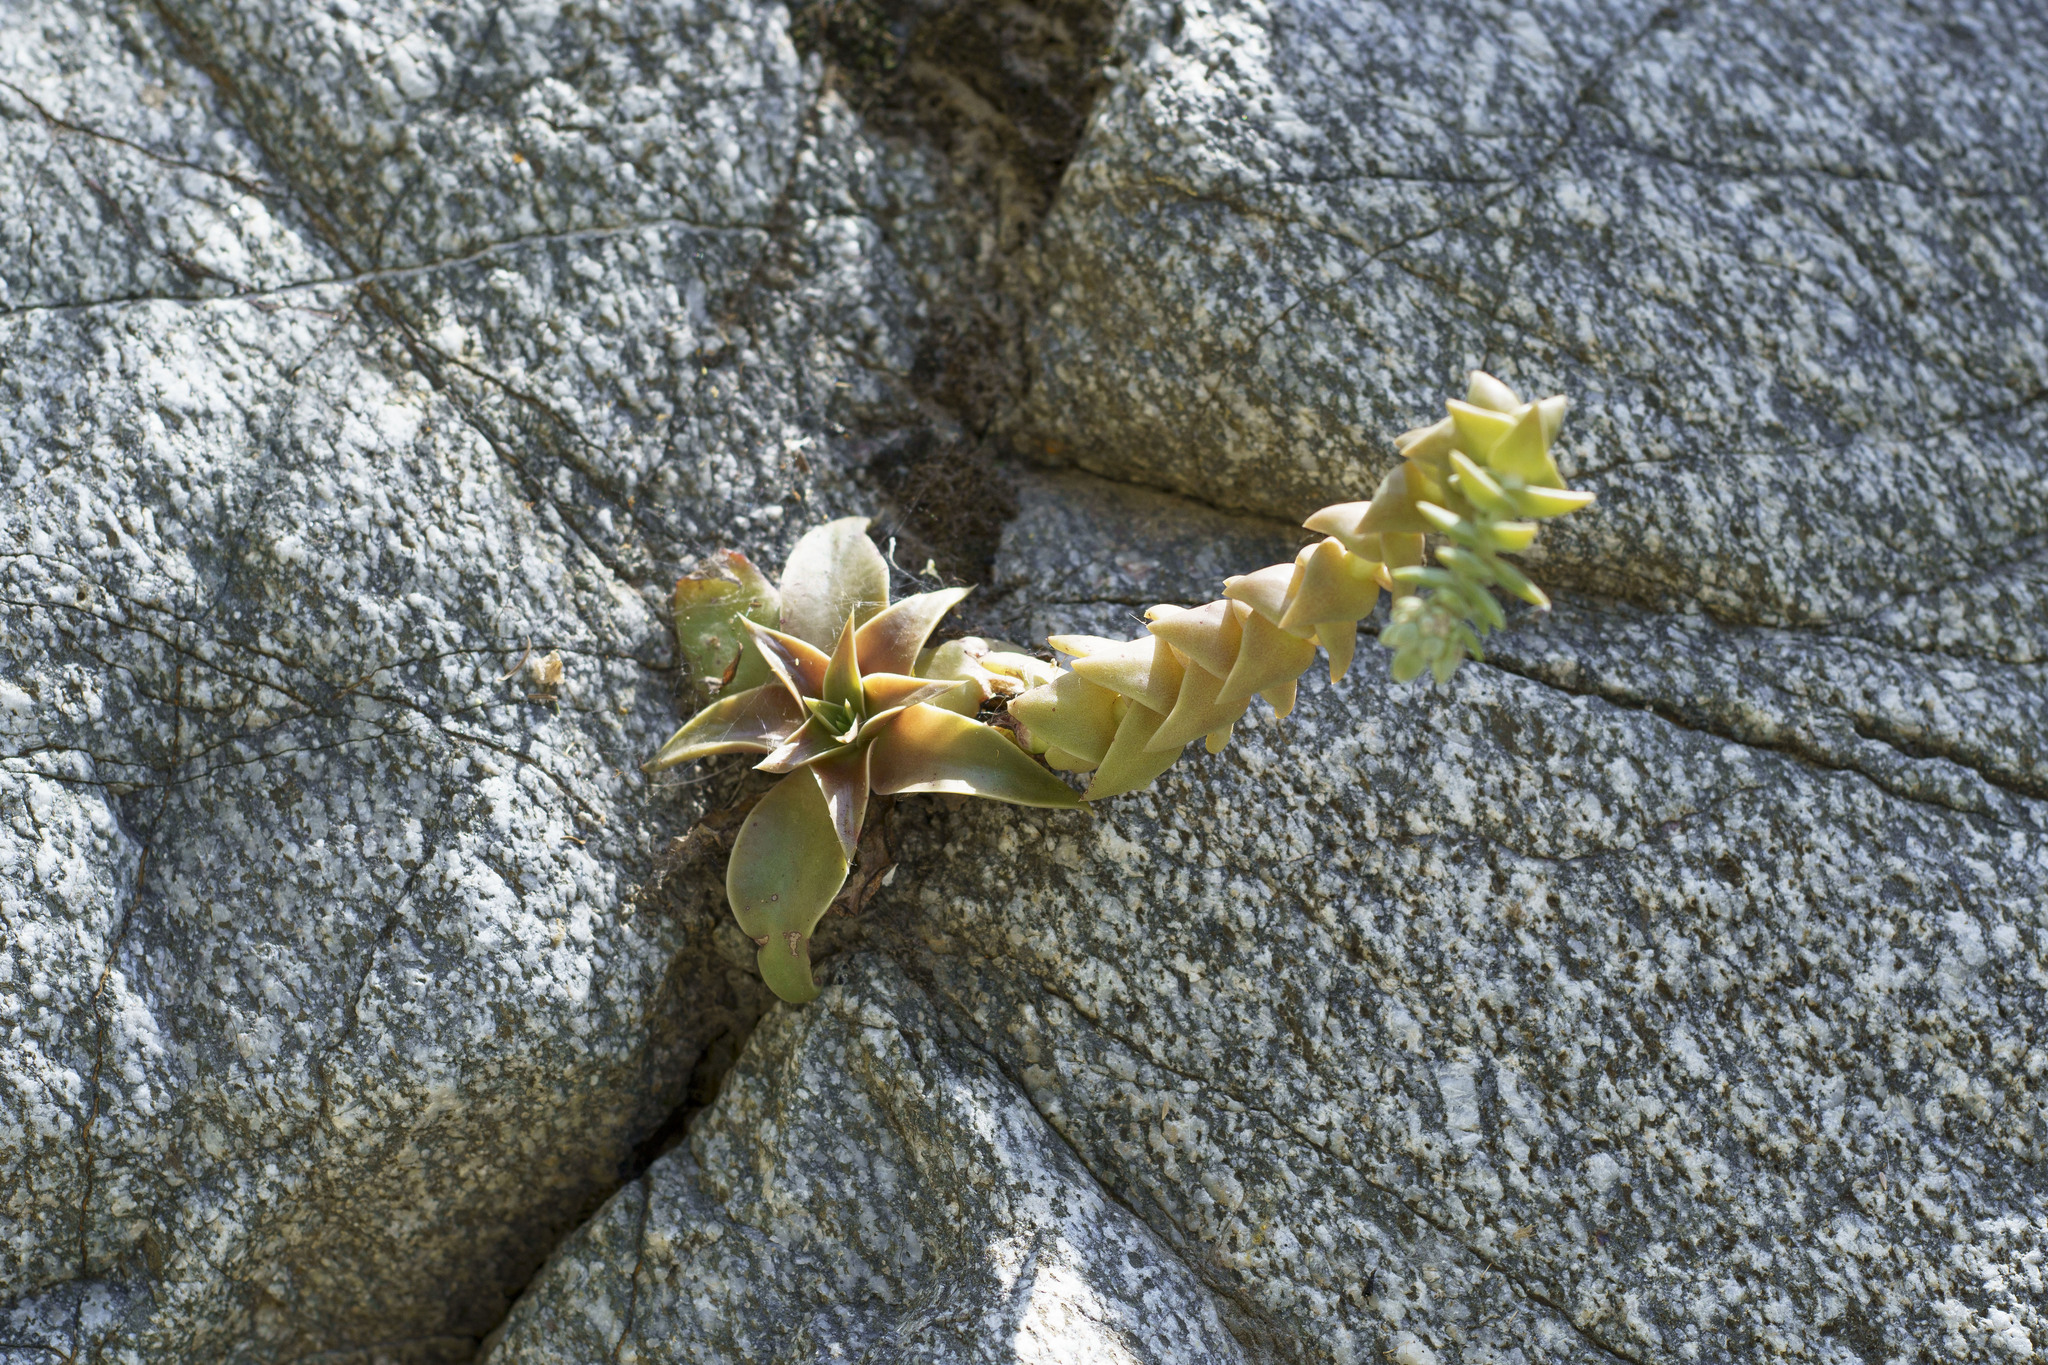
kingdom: Plantae
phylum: Tracheophyta
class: Magnoliopsida
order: Saxifragales
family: Crassulaceae
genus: Dudleya
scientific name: Dudleya cymosa
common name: Canyon dudleya
